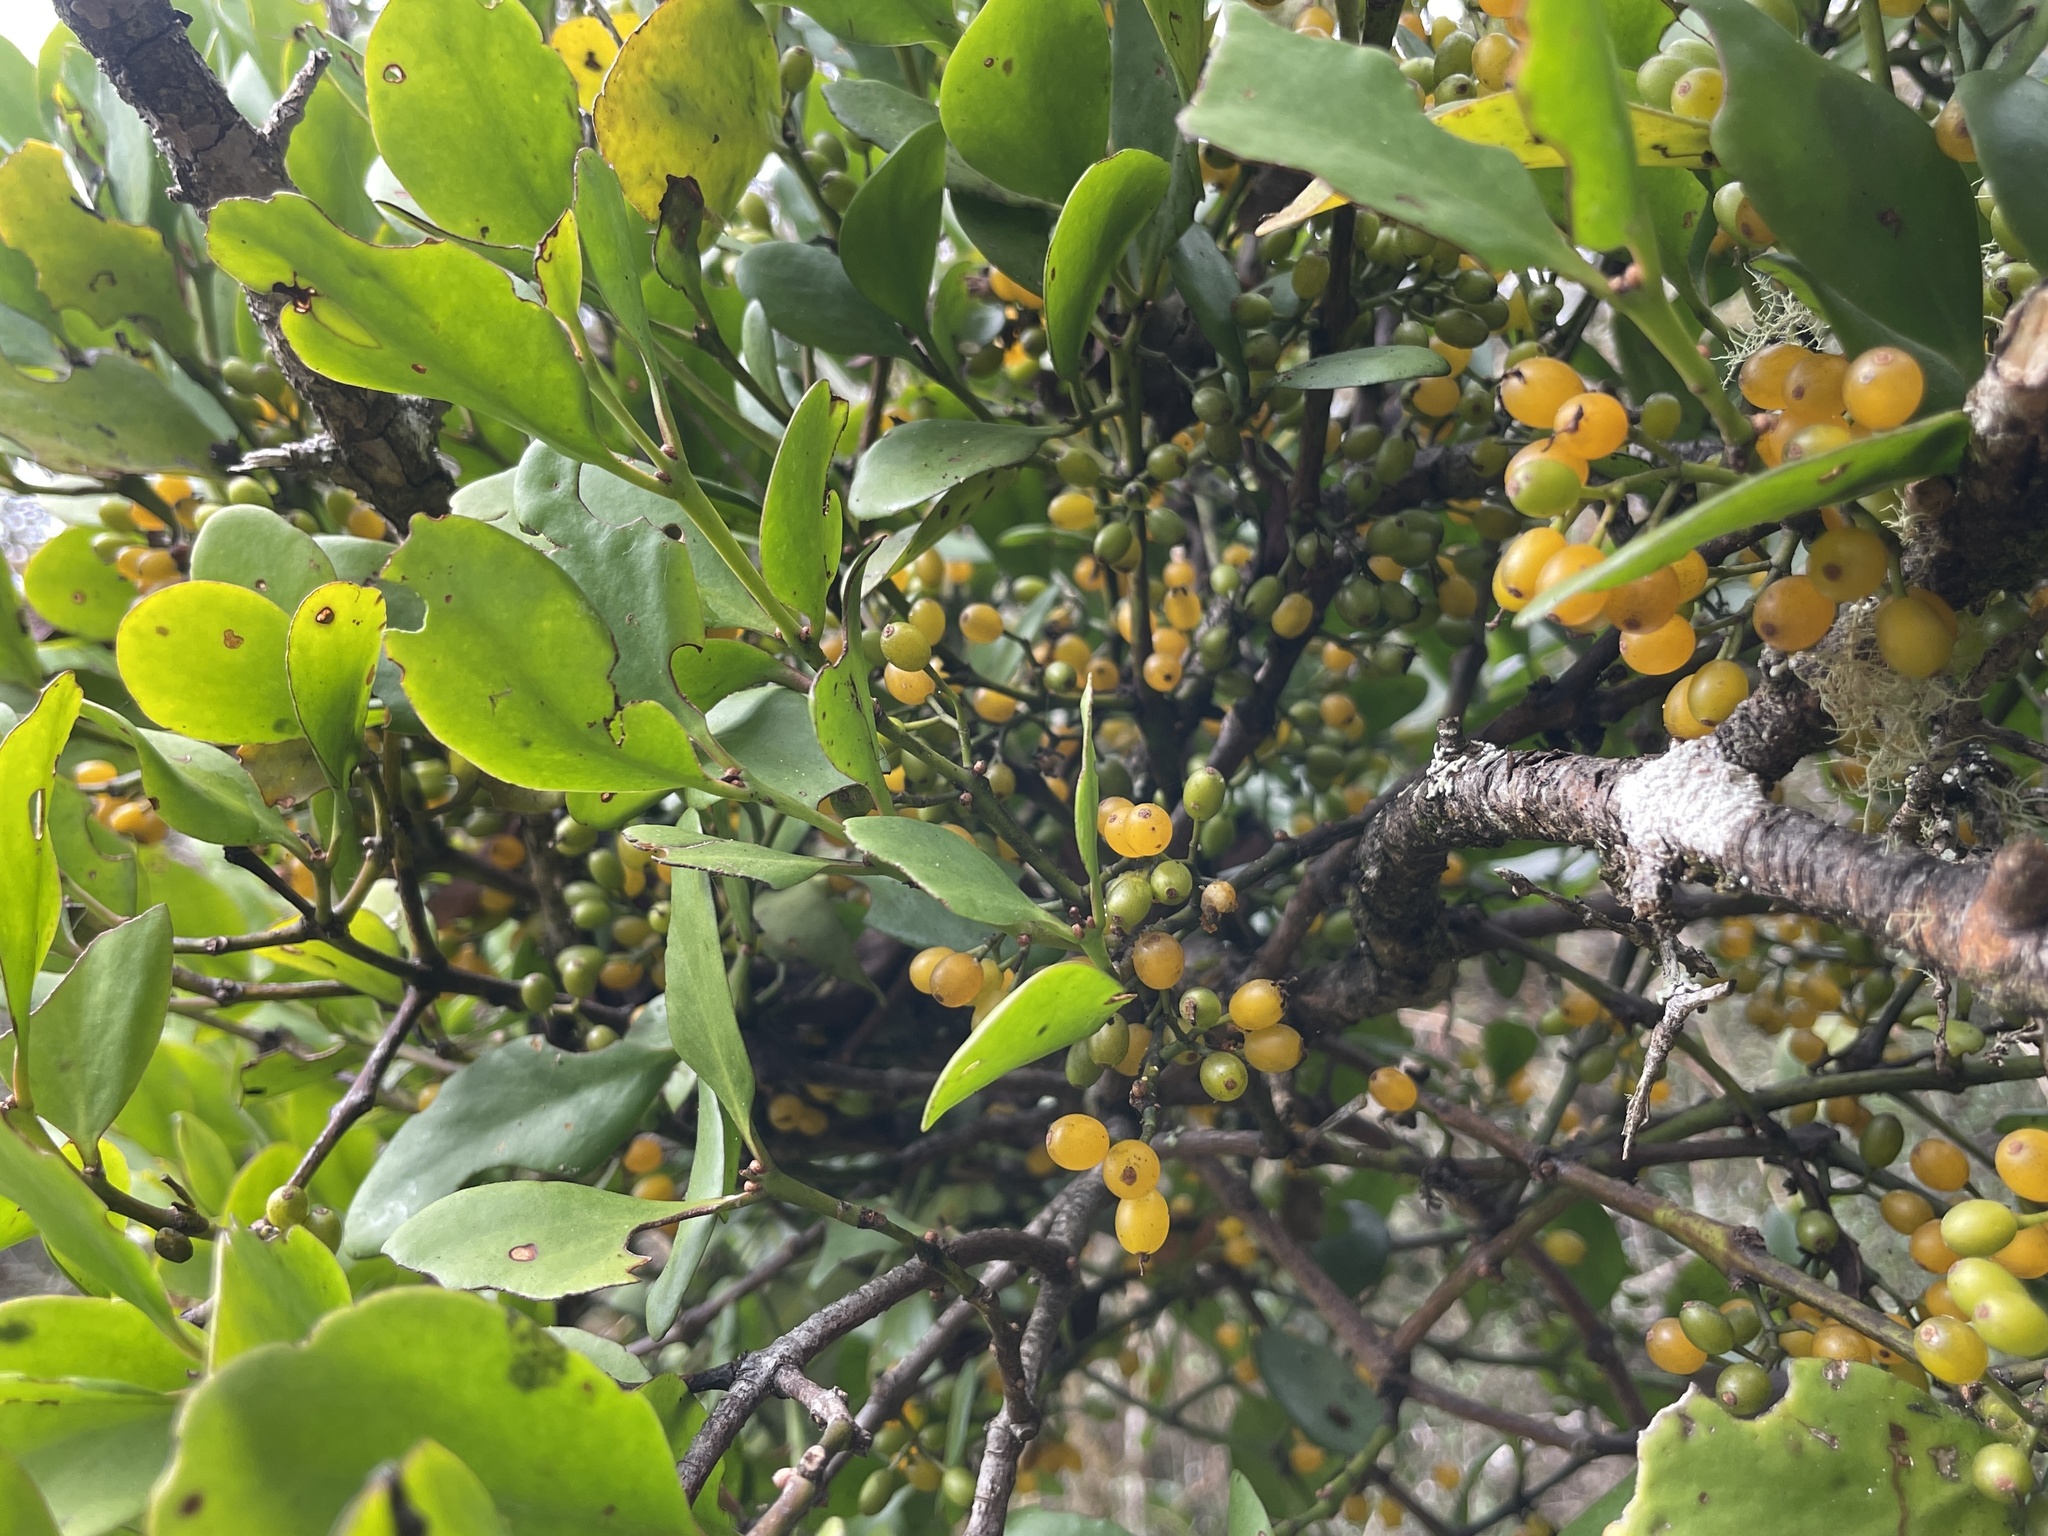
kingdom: Plantae
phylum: Tracheophyta
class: Magnoliopsida
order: Santalales
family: Loranthaceae
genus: Ileostylus
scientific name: Ileostylus micranthus
